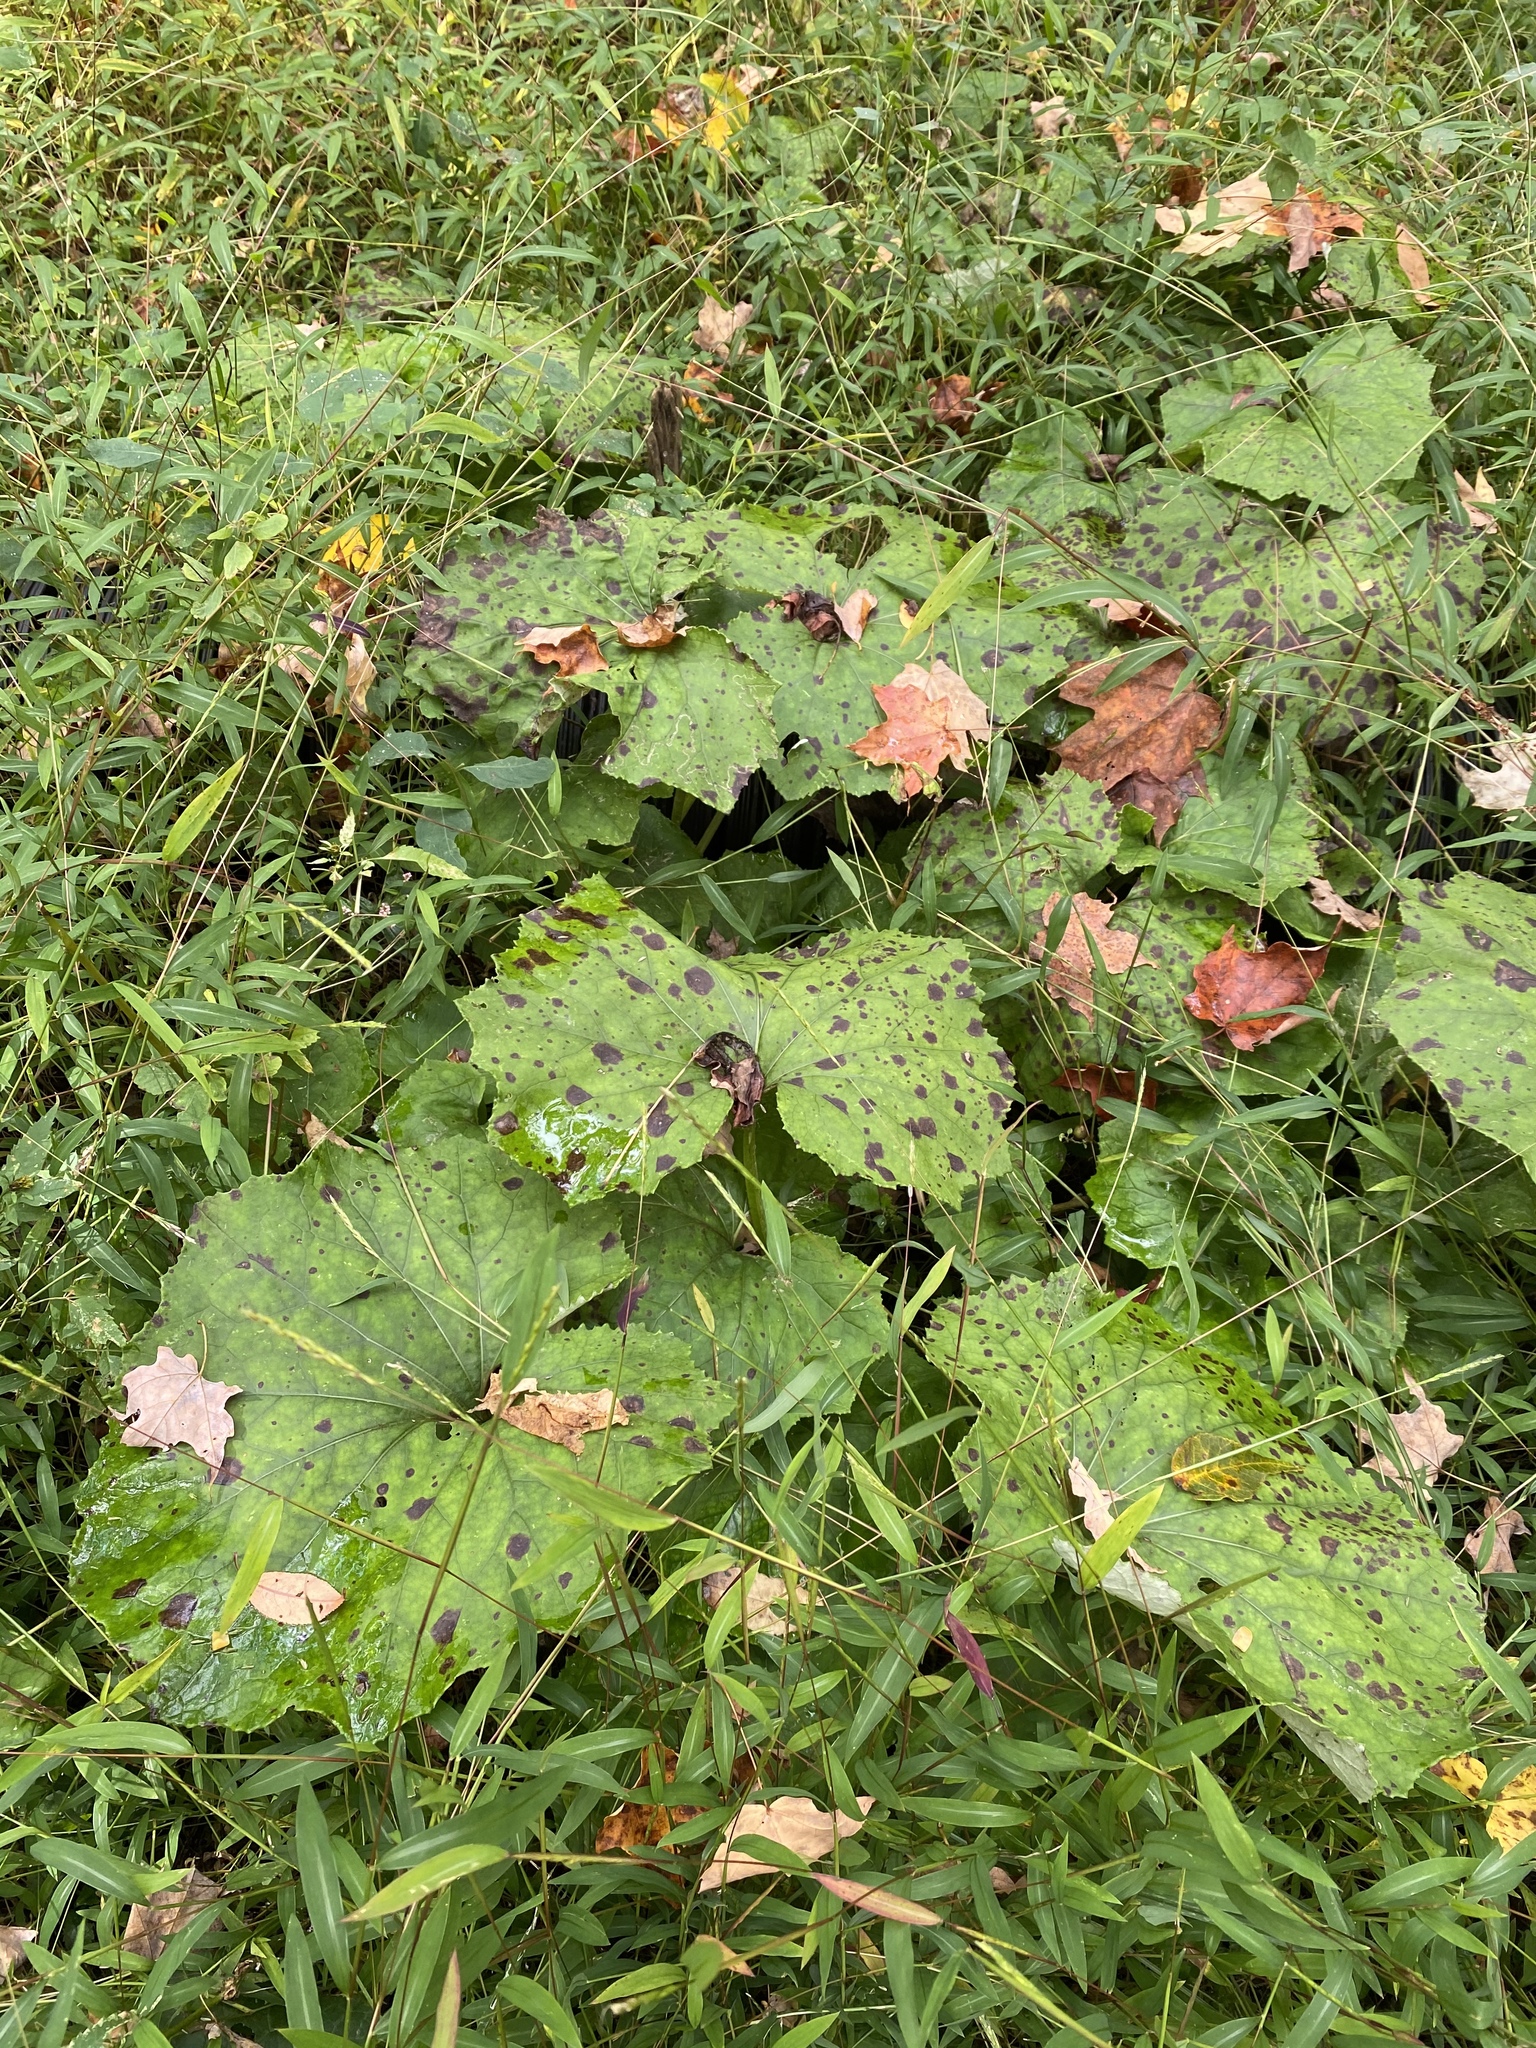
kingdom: Plantae
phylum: Tracheophyta
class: Magnoliopsida
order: Asterales
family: Asteraceae
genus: Tussilago
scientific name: Tussilago farfara
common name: Coltsfoot
